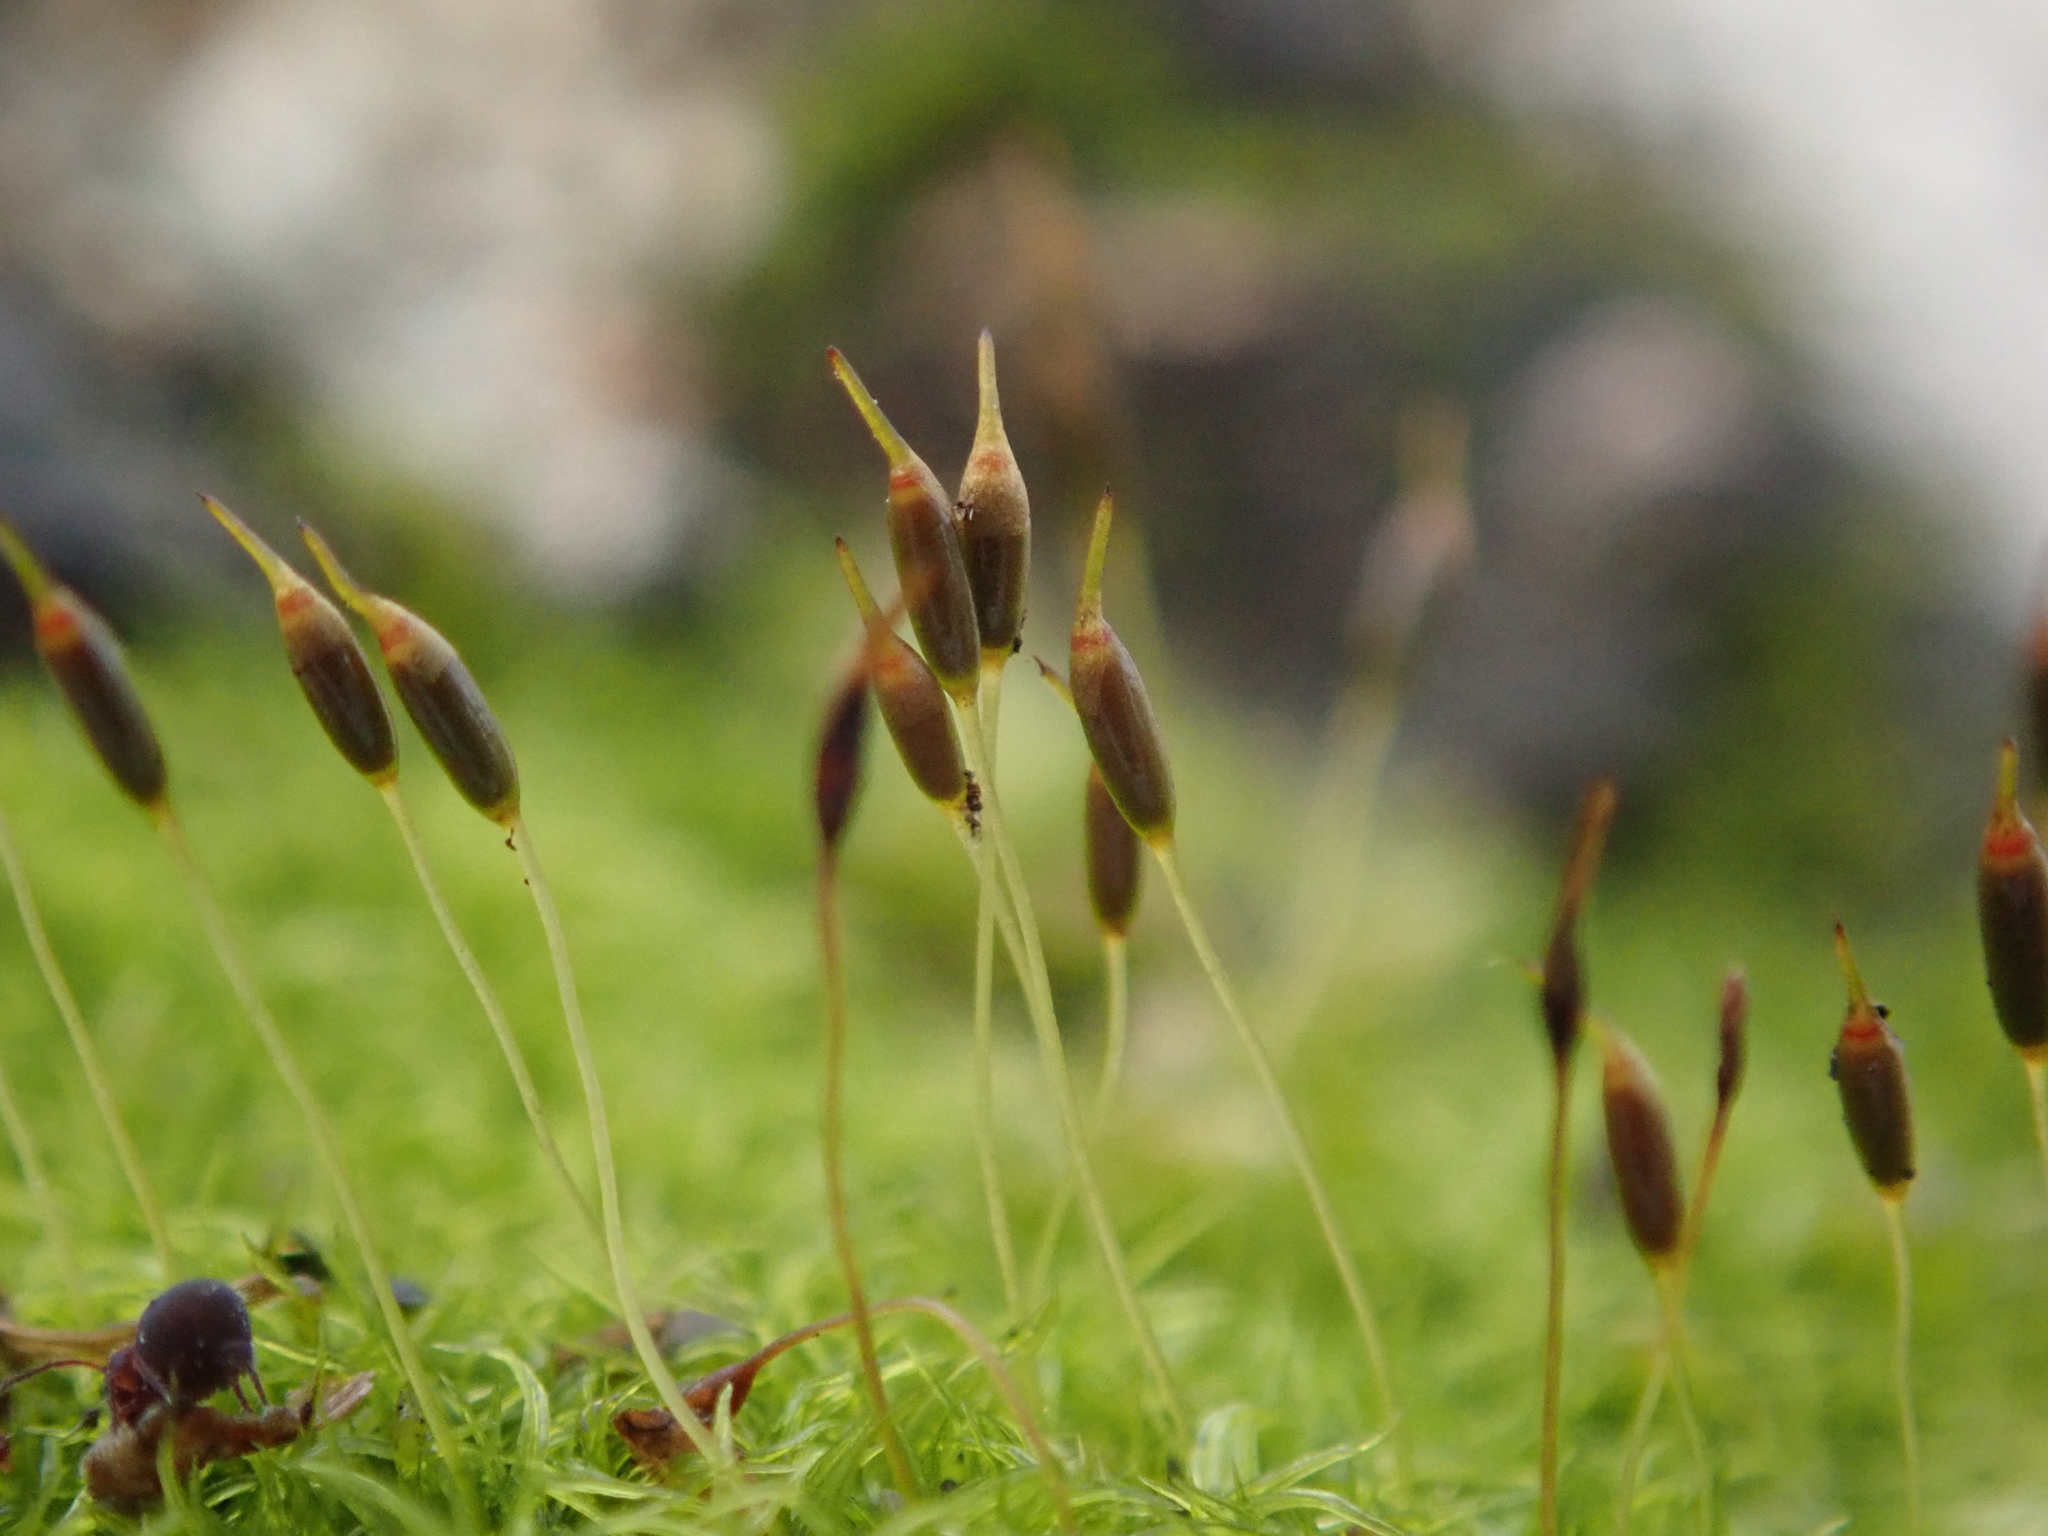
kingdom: Plantae
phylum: Bryophyta
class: Bryopsida
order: Dicranales
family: Rhabdoweisiaceae
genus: Dicranoweisia
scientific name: Dicranoweisia cirrata
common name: Common pincushion
